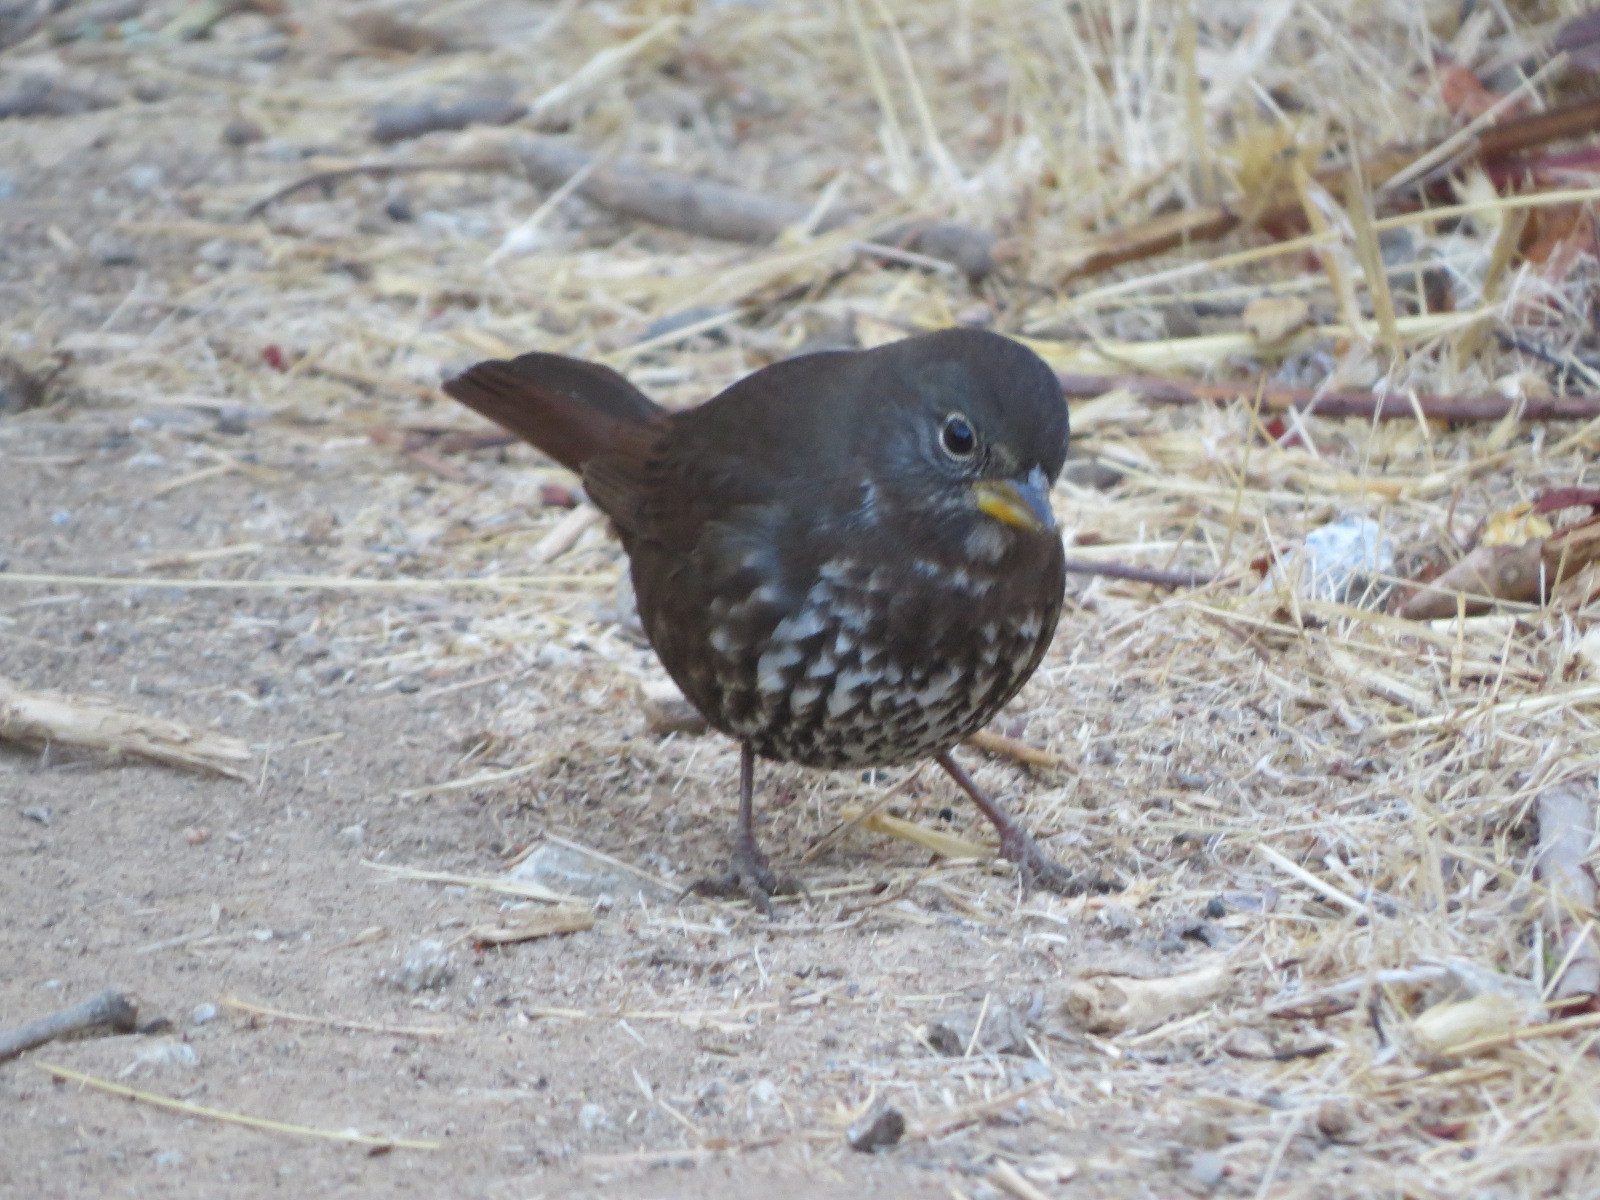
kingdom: Animalia
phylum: Chordata
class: Aves
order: Passeriformes
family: Passerellidae
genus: Passerella
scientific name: Passerella iliaca
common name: Fox sparrow
